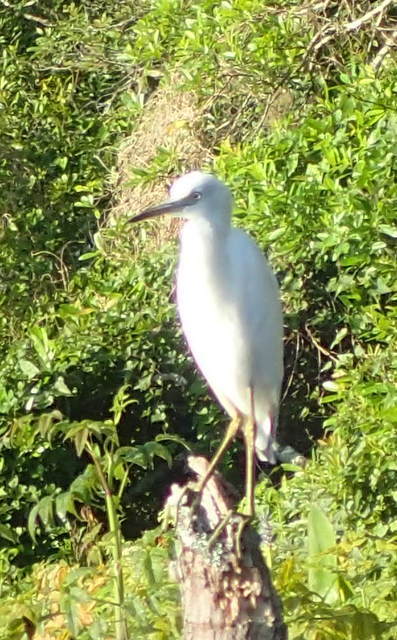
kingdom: Animalia
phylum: Chordata
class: Aves
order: Pelecaniformes
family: Ardeidae
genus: Egretta
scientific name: Egretta caerulea
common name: Little blue heron
